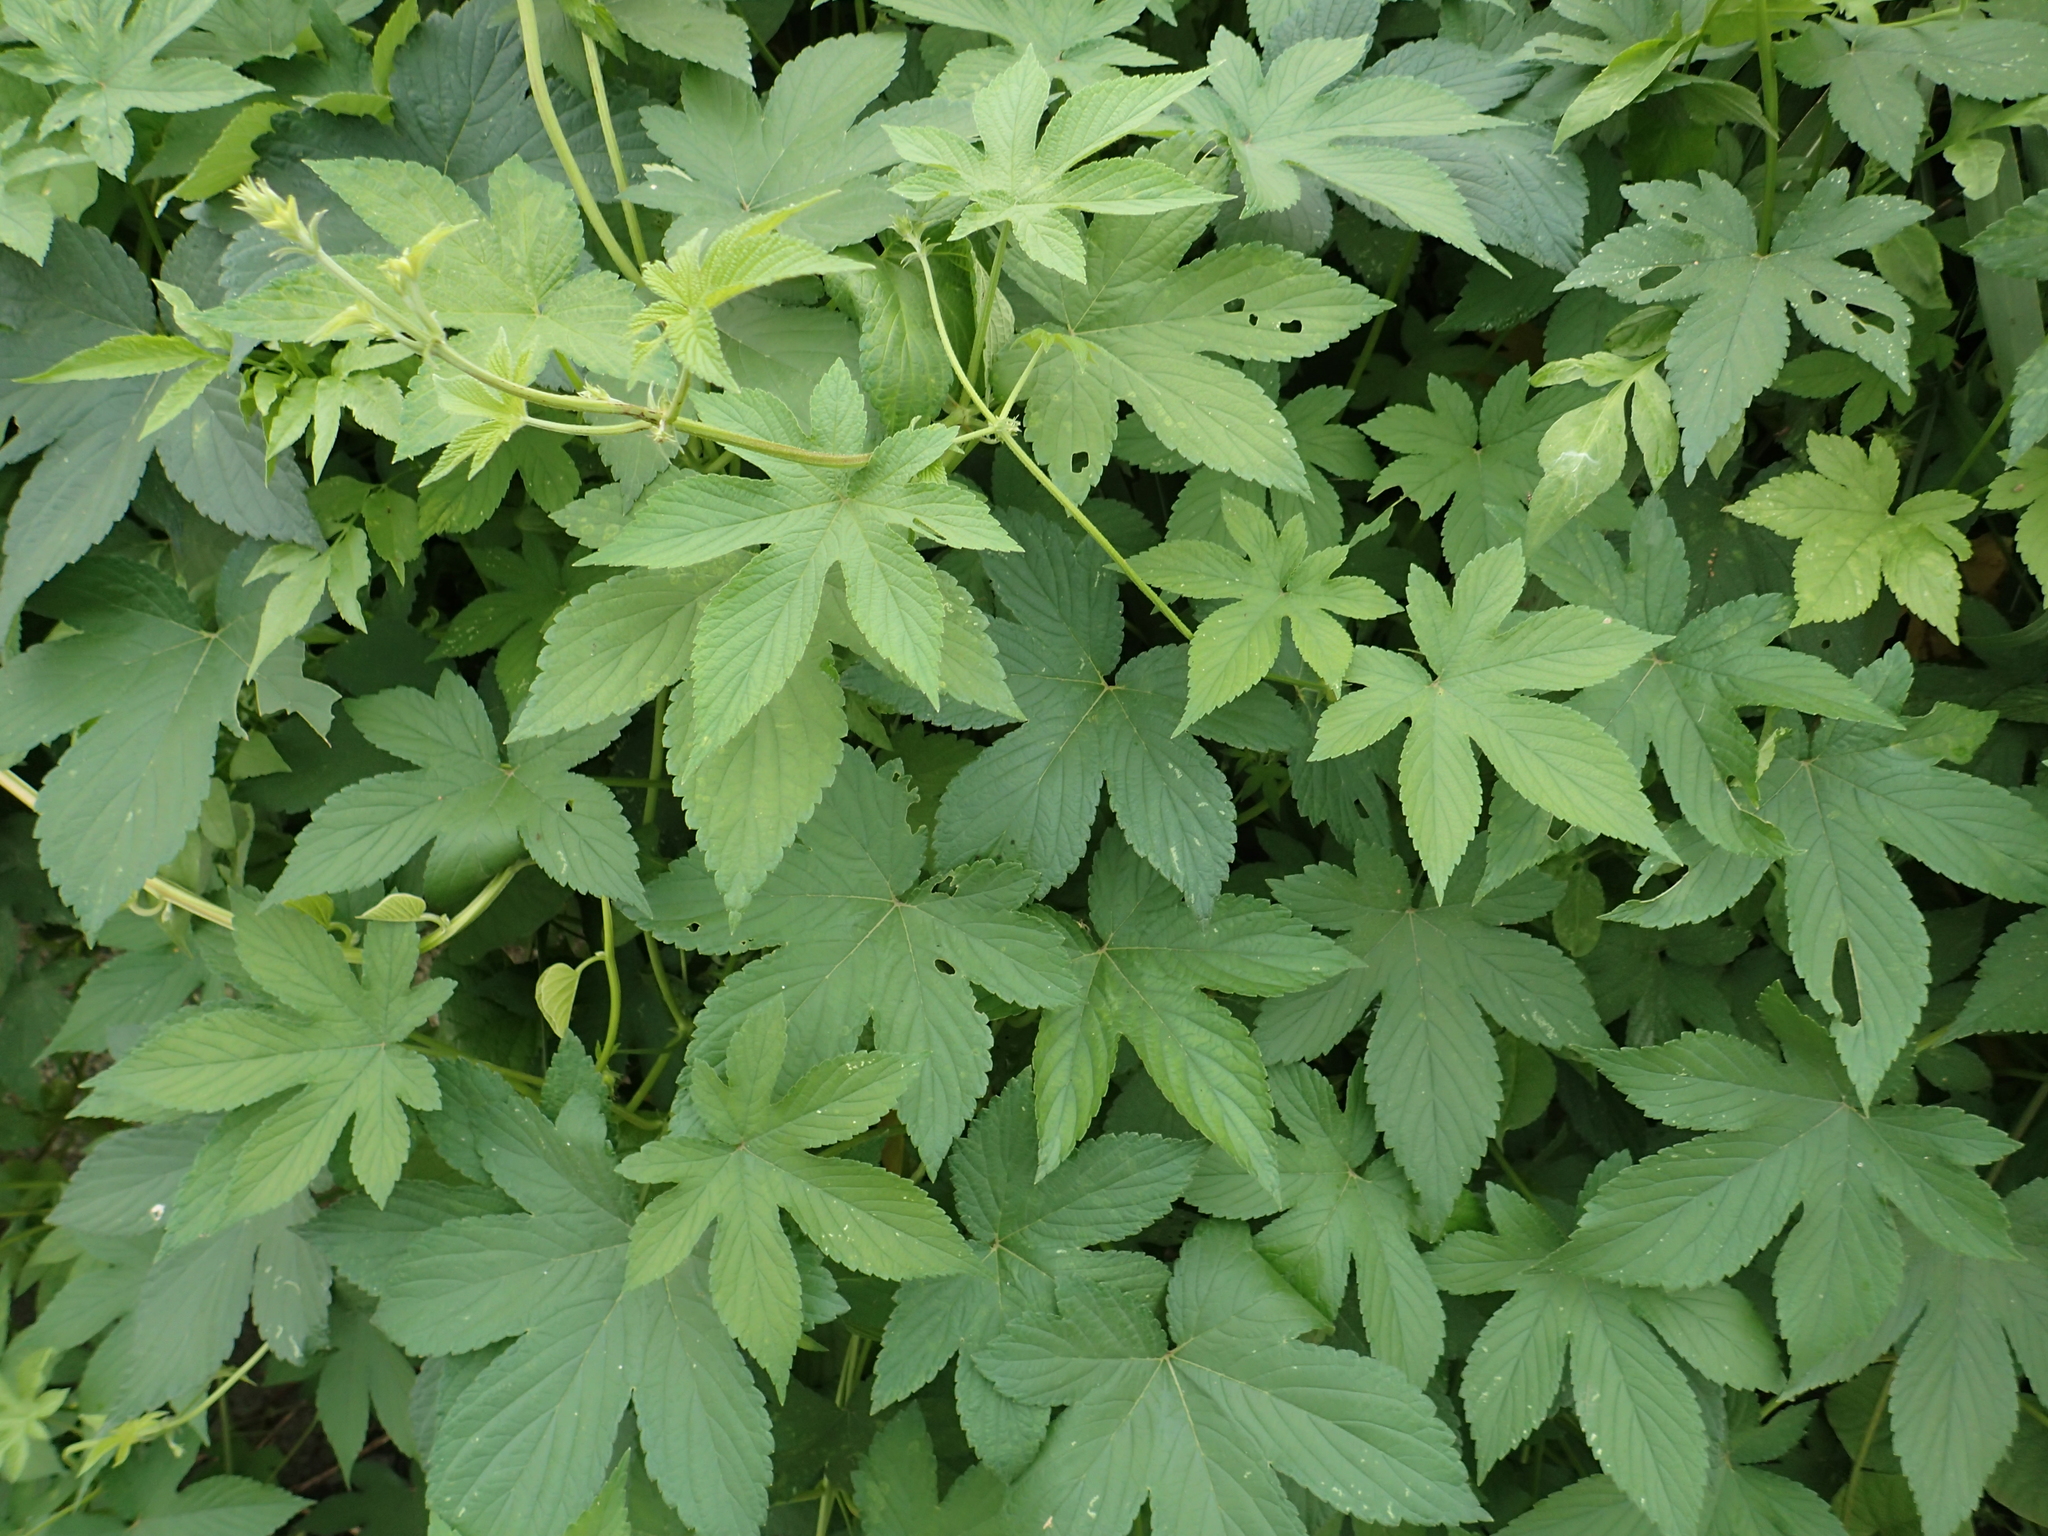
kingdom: Plantae
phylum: Tracheophyta
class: Magnoliopsida
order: Rosales
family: Cannabaceae
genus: Humulus
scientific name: Humulus scandens
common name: Japanese hop
